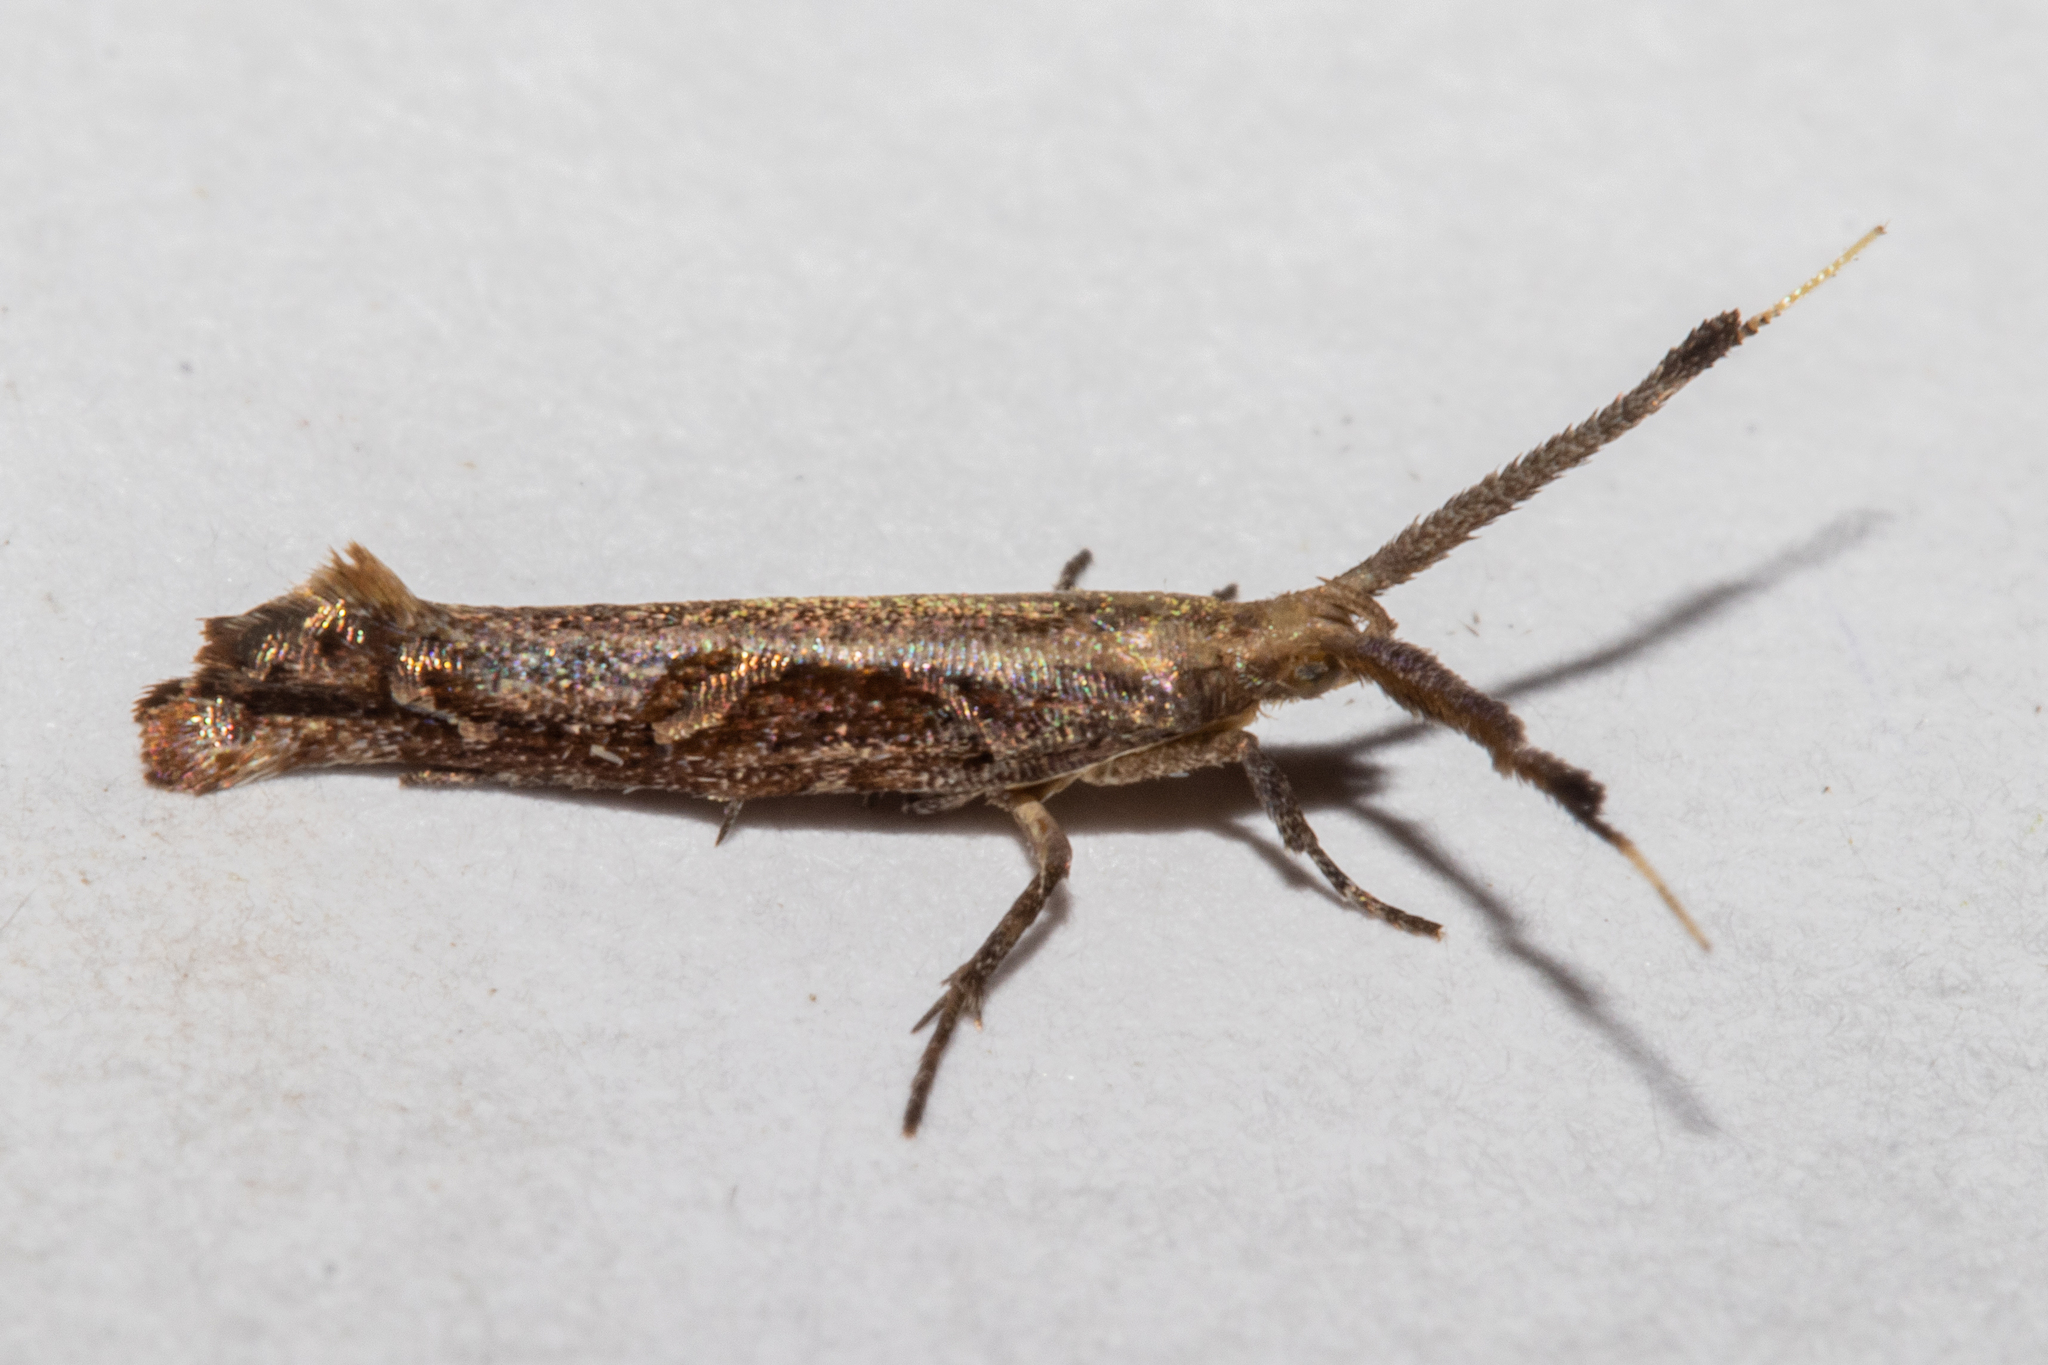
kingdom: Animalia
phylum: Arthropoda
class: Insecta
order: Lepidoptera
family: Plutellidae
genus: Protosynaema
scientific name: Protosynaema steropucha
